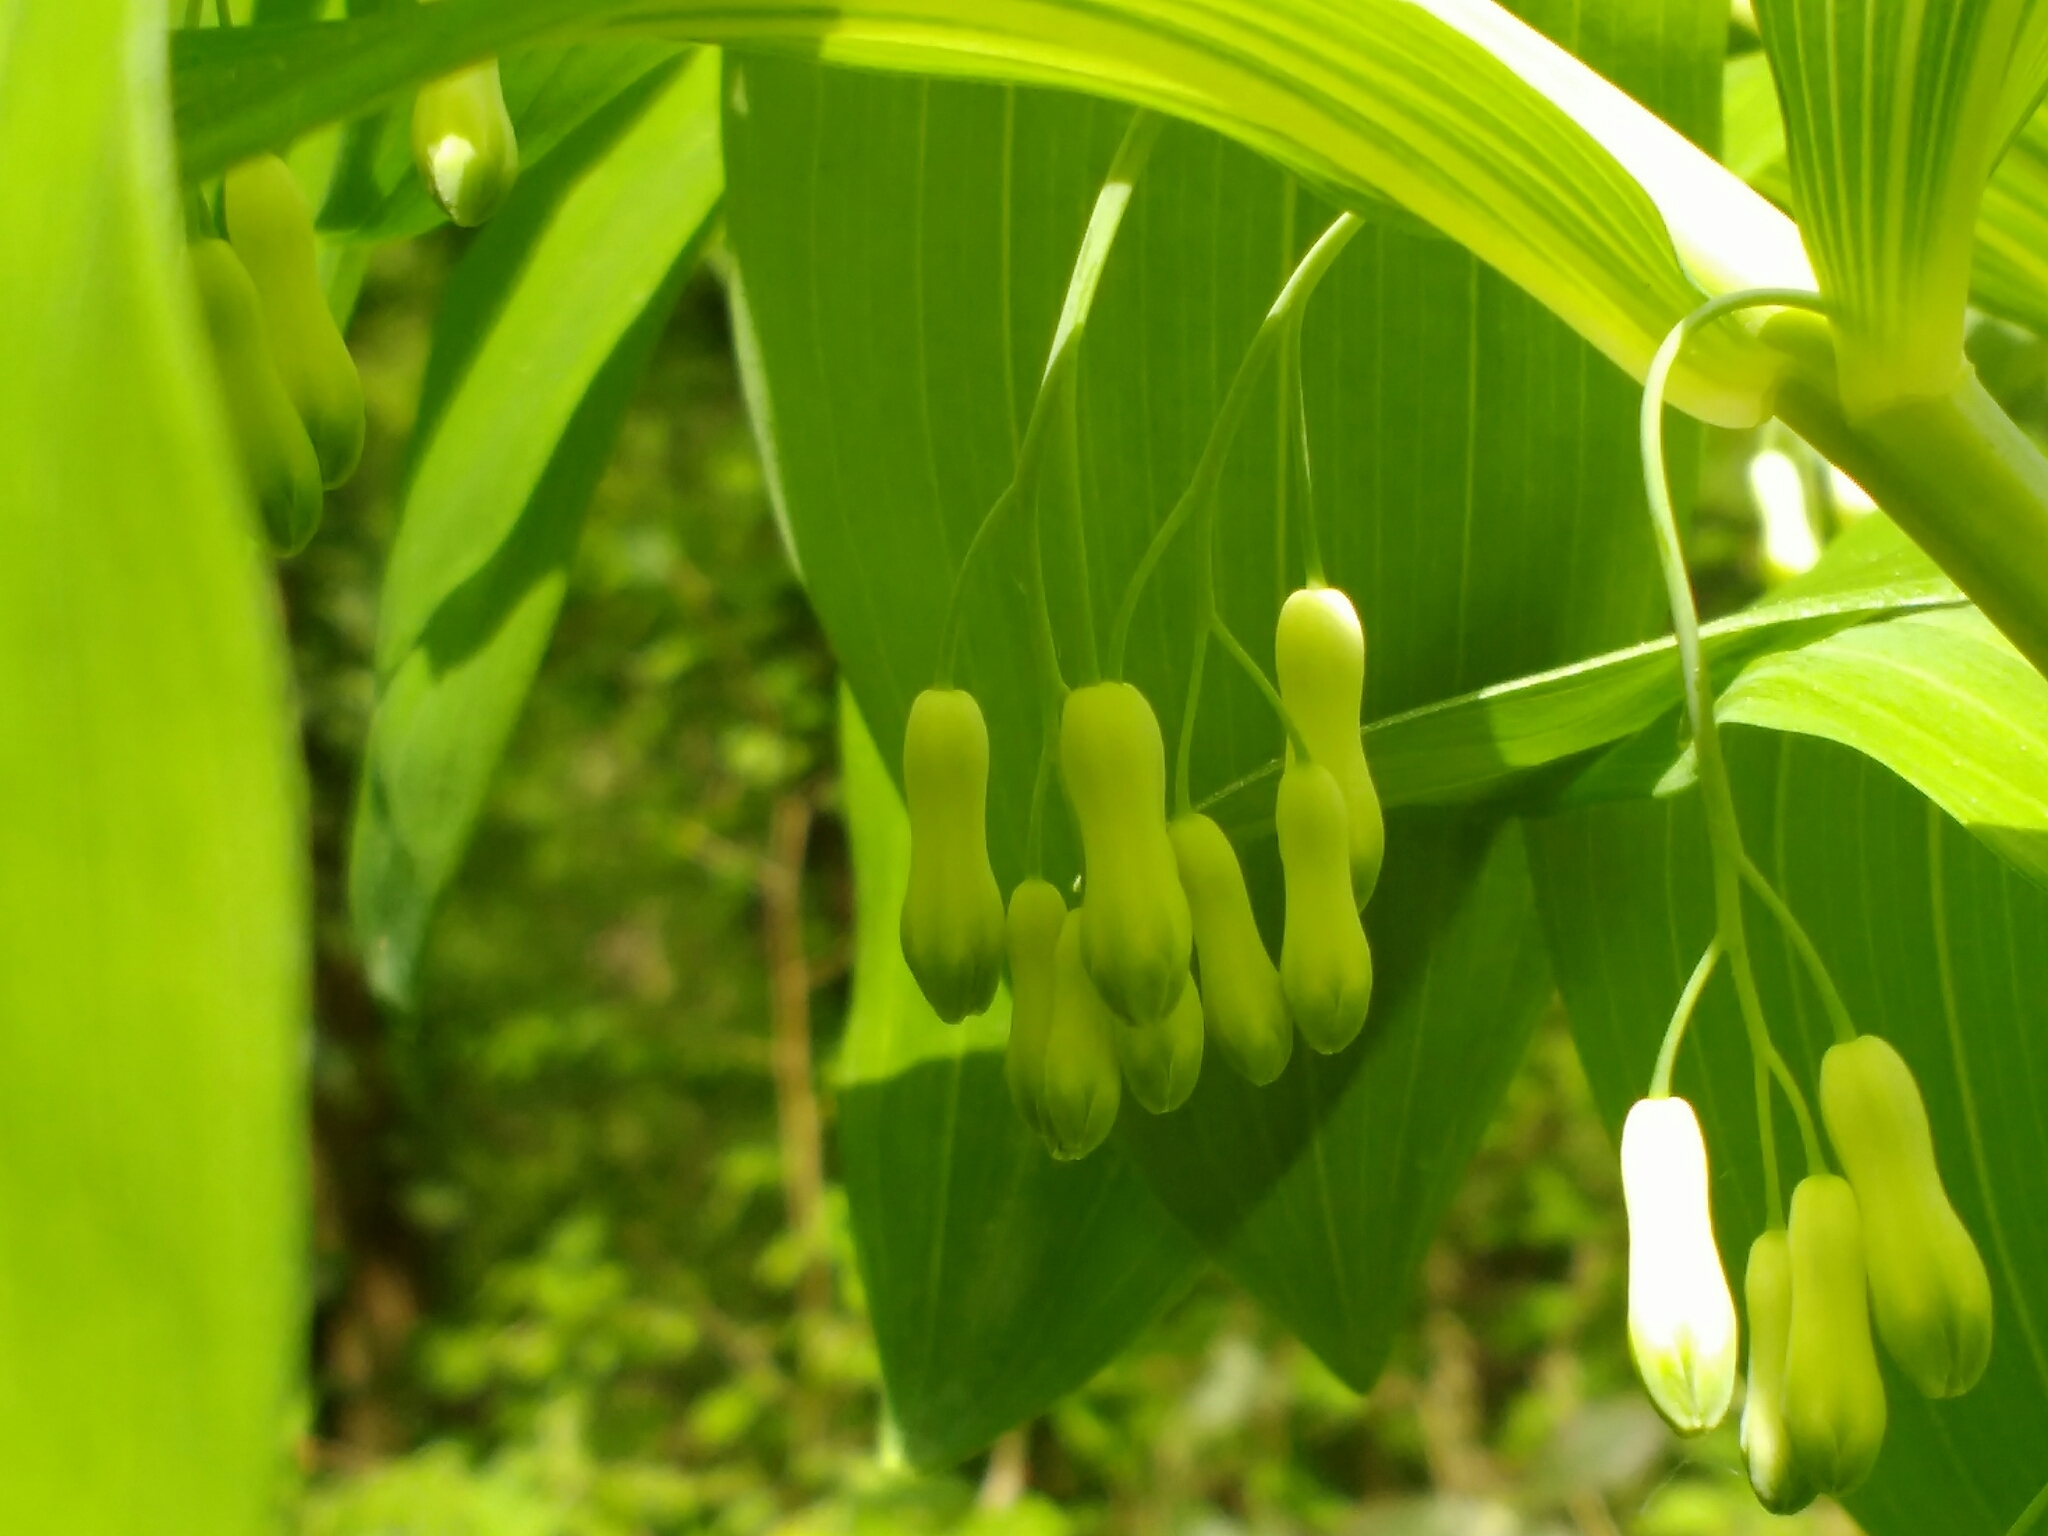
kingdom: Plantae
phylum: Tracheophyta
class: Liliopsida
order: Asparagales
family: Asparagaceae
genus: Polygonatum
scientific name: Polygonatum multiflorum
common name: Solomon's-seal
